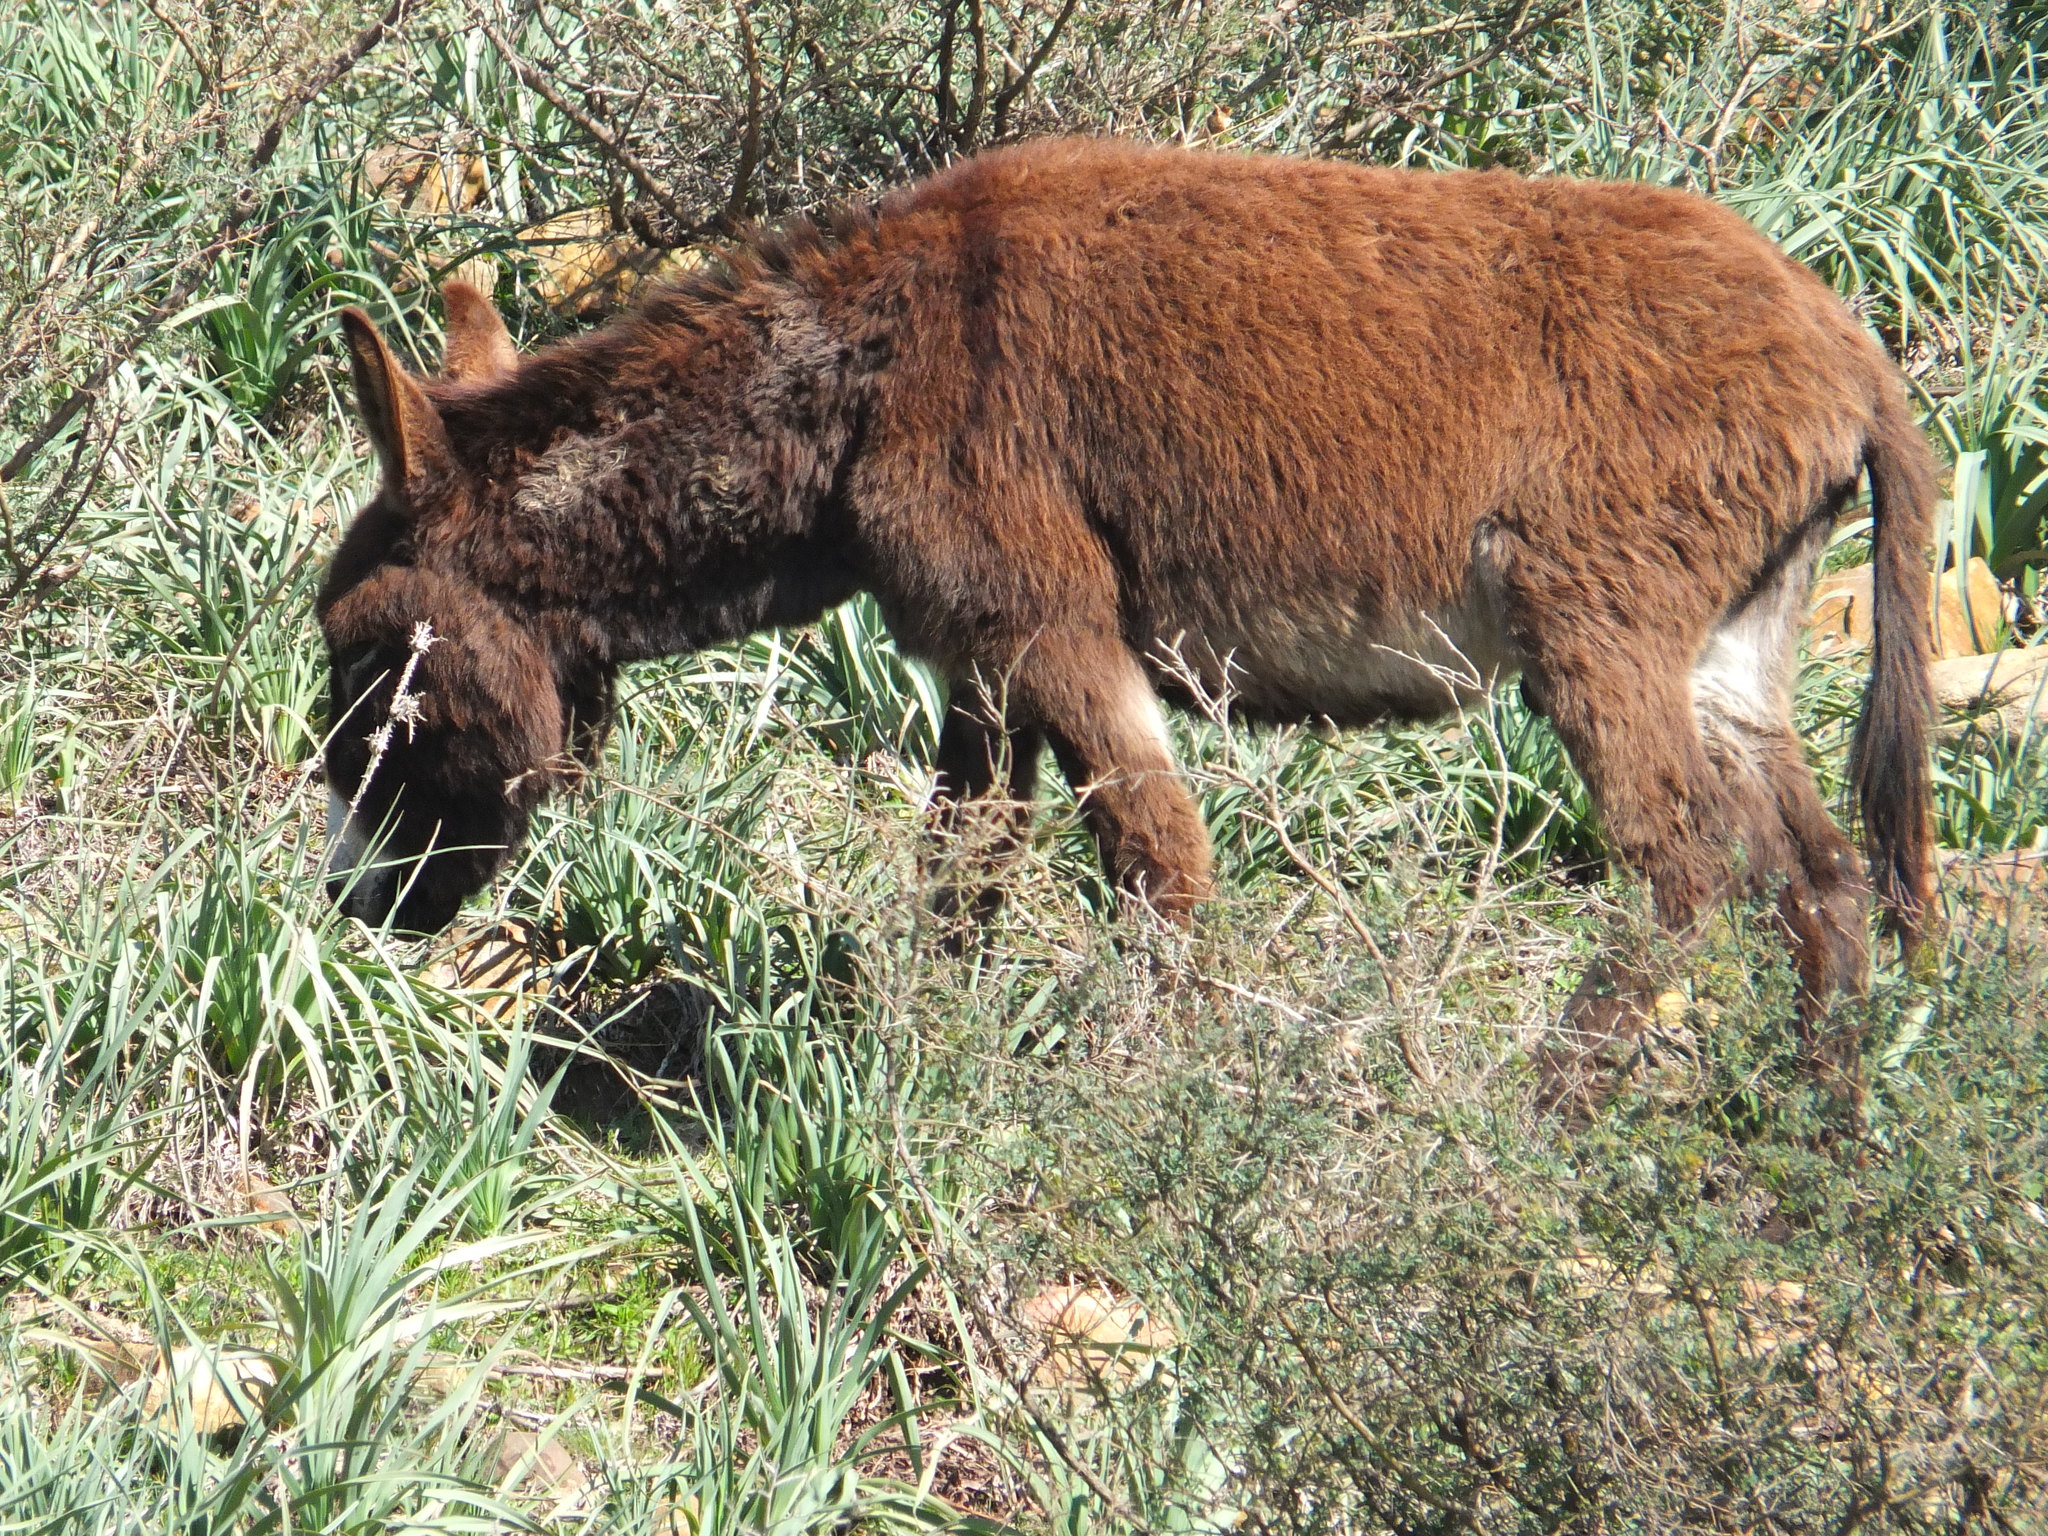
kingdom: Animalia
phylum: Chordata
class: Mammalia
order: Perissodactyla
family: Equidae
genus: Equus
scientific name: Equus asinus
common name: Ass
